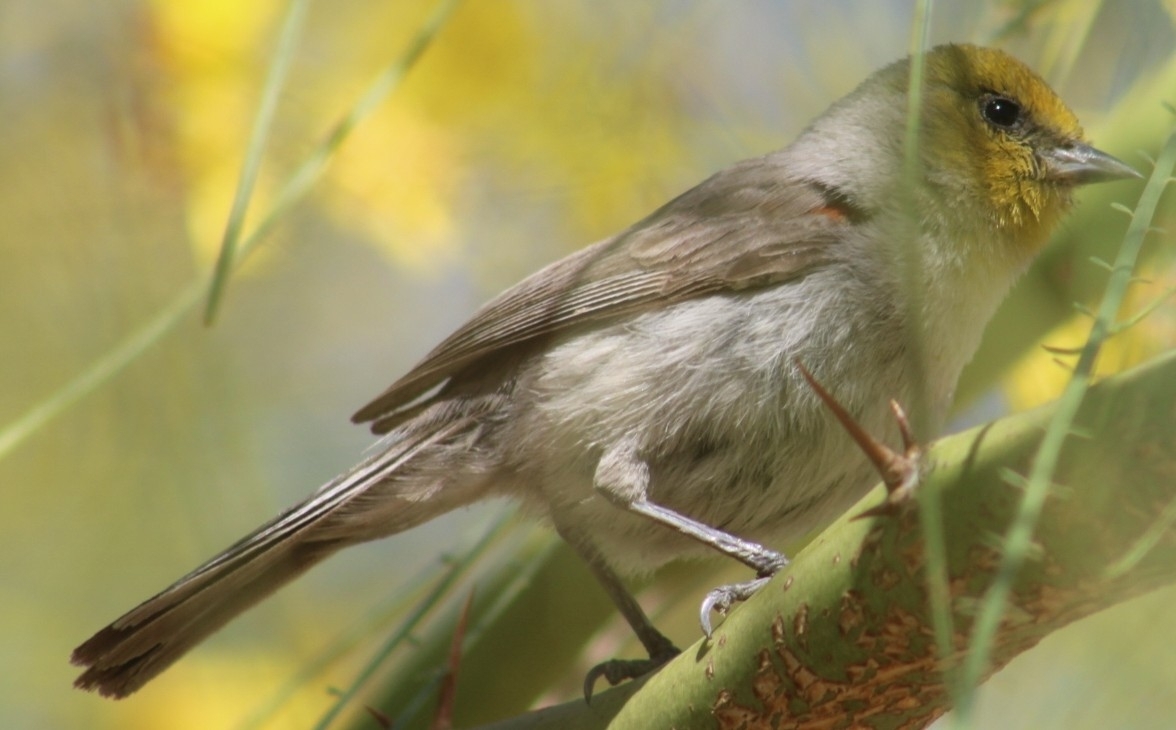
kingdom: Animalia
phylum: Chordata
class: Aves
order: Passeriformes
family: Remizidae
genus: Auriparus
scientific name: Auriparus flaviceps
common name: Verdin
